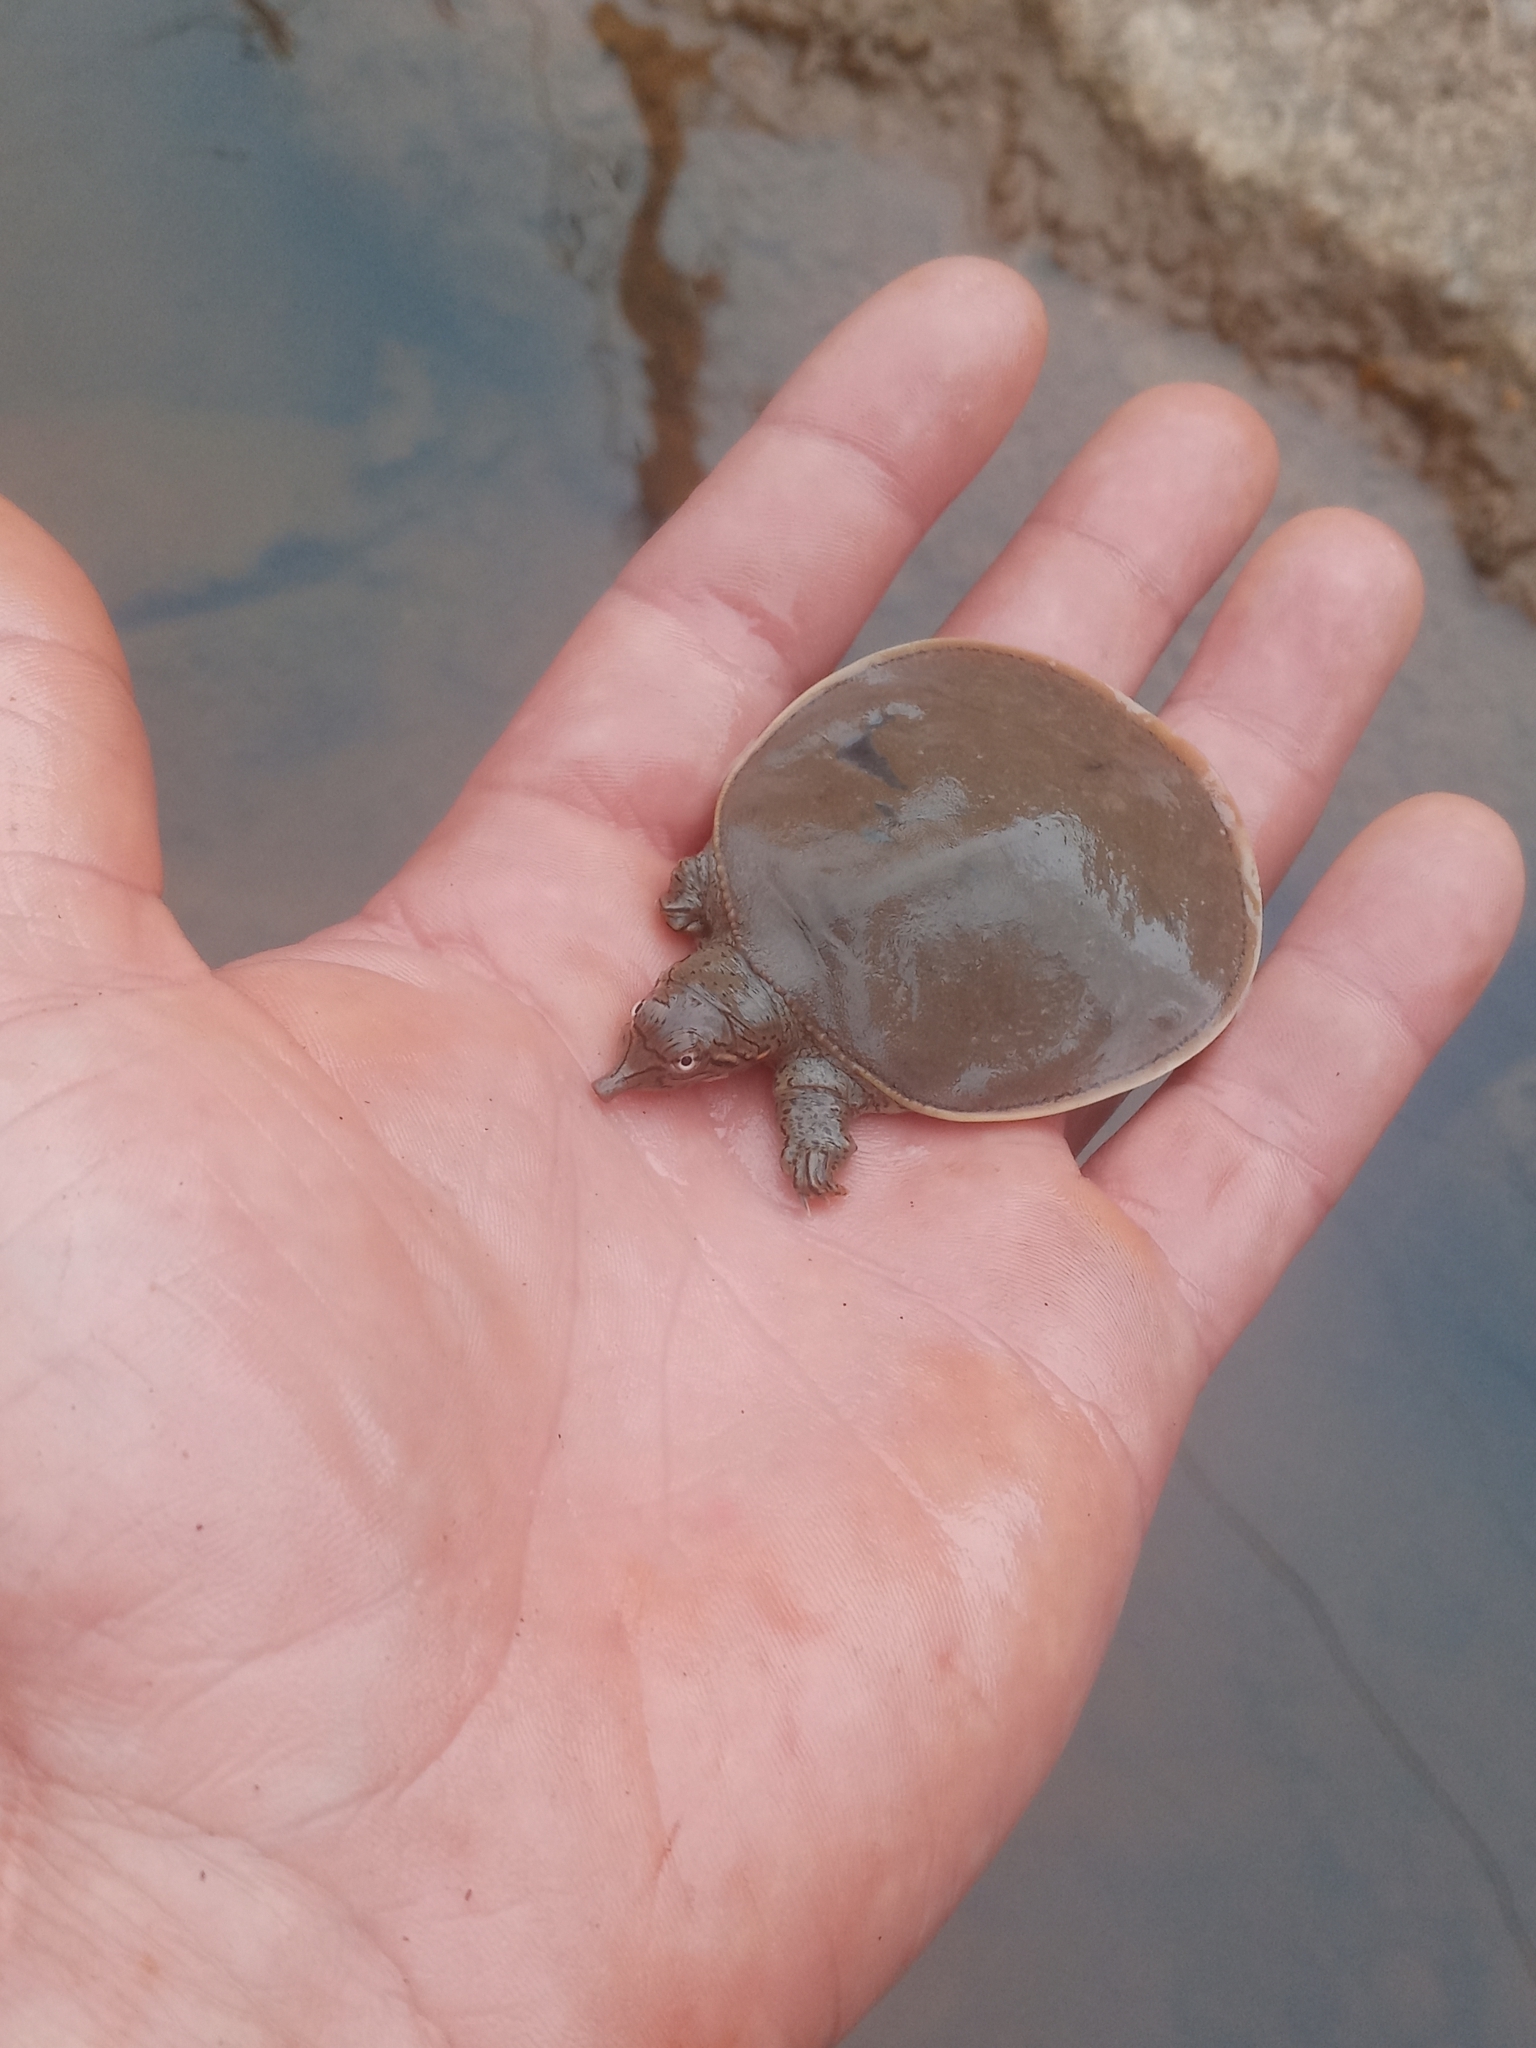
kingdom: Animalia
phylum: Chordata
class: Testudines
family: Trionychidae
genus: Apalone
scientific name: Apalone spinifera
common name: Spiny softshell turtle
